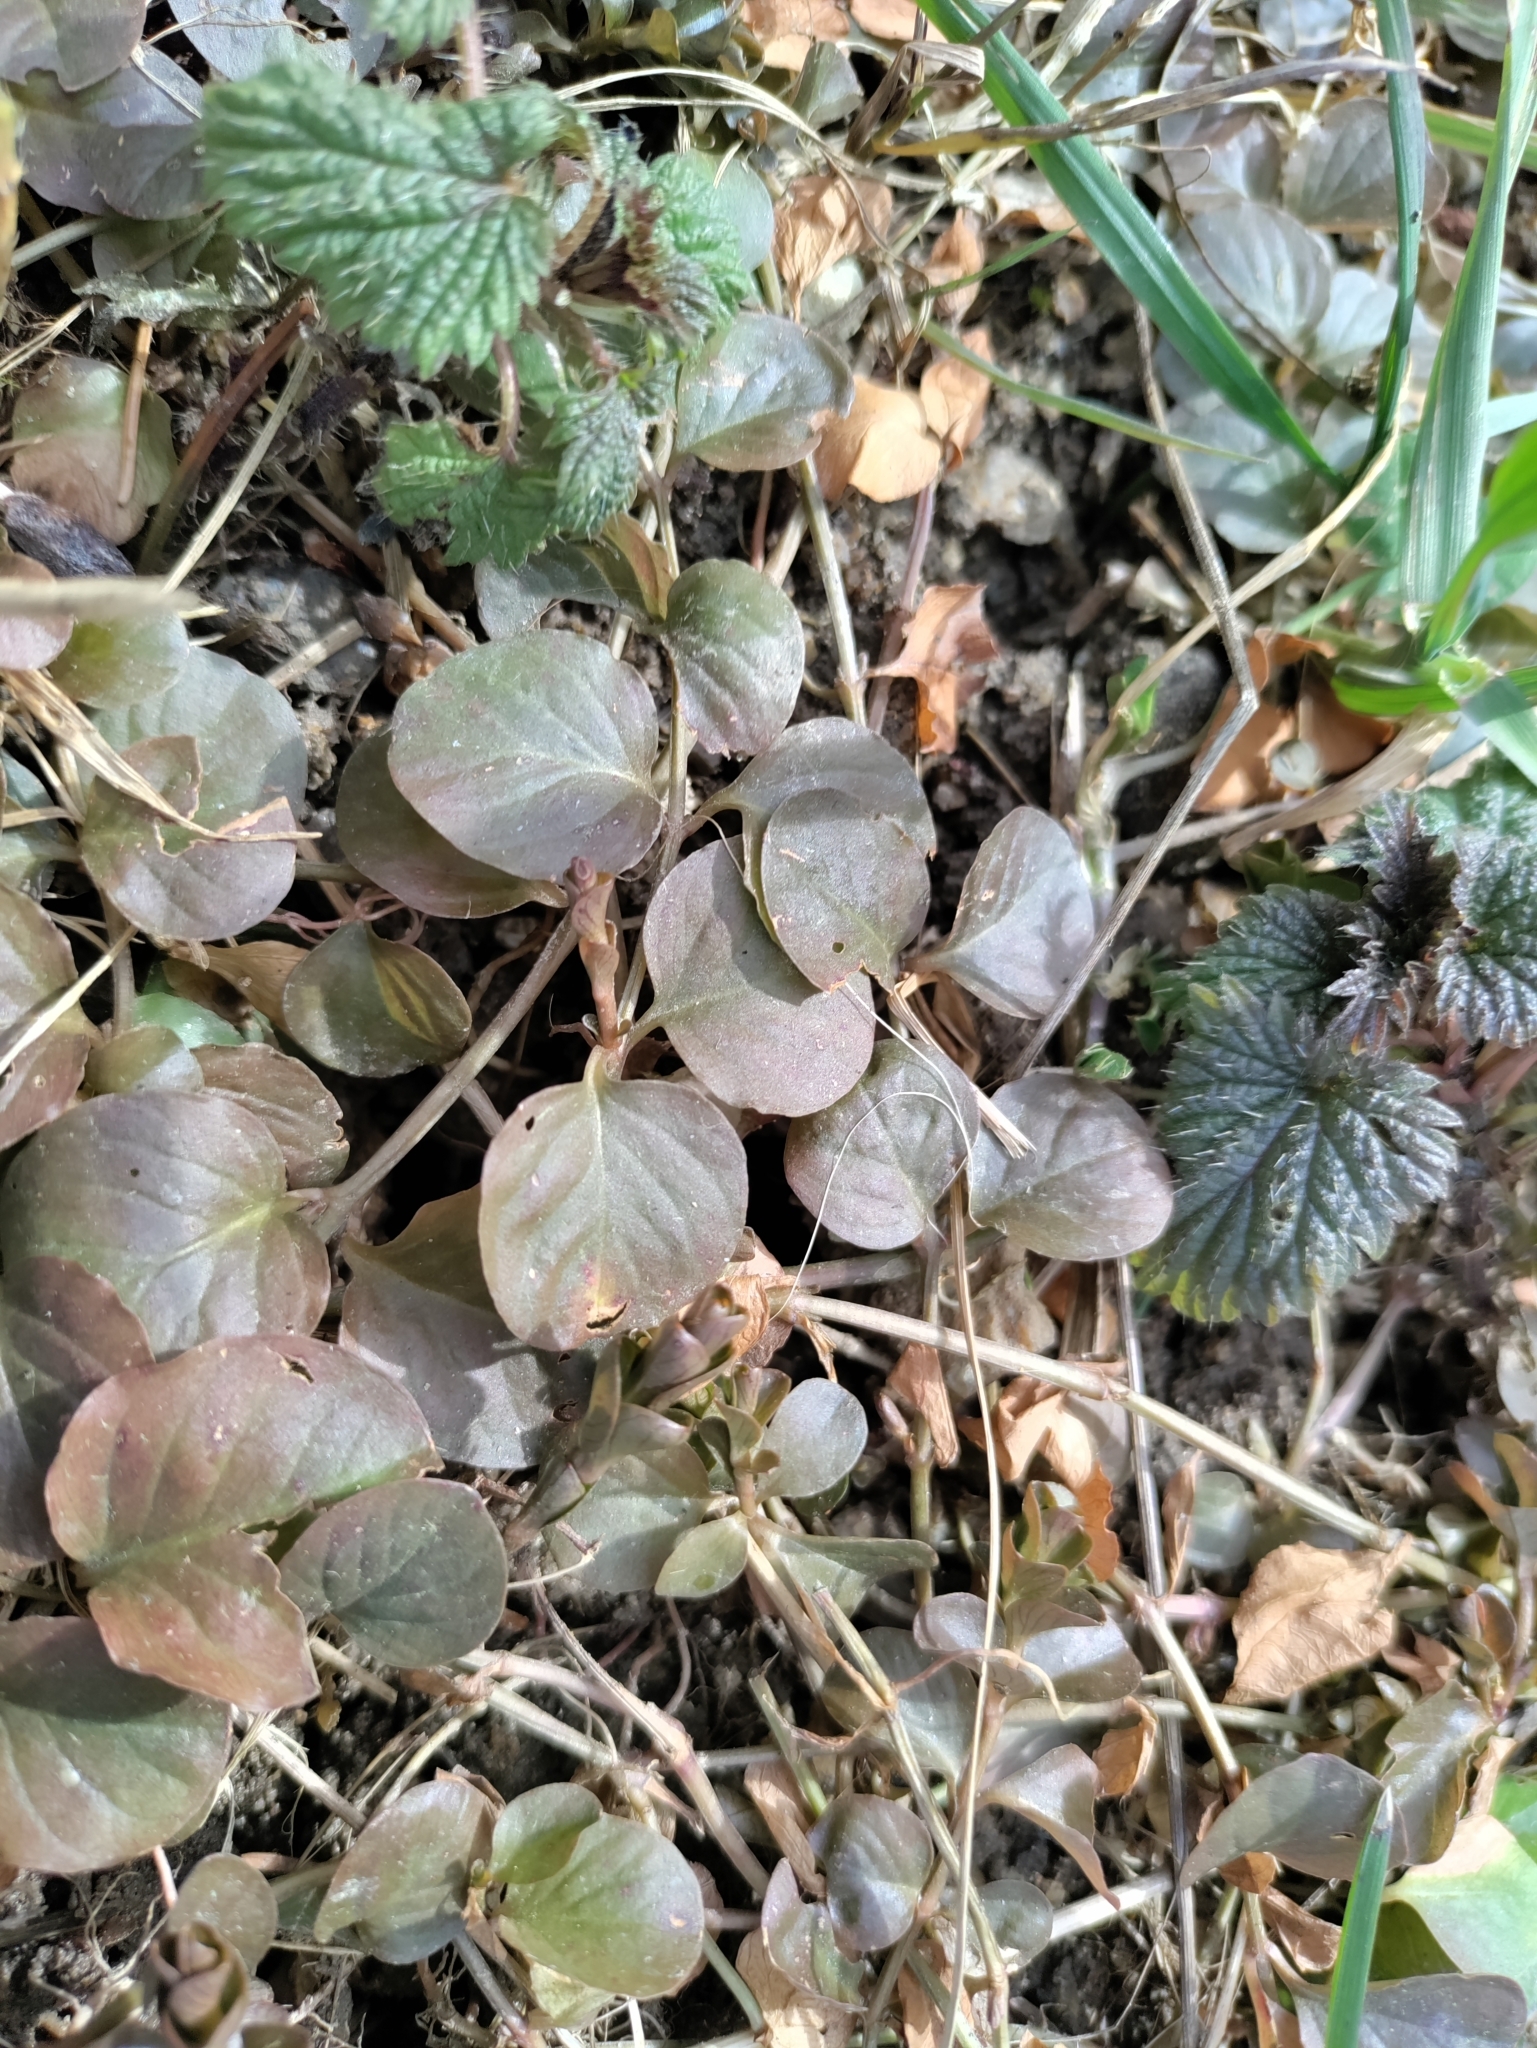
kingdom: Plantae
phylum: Tracheophyta
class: Magnoliopsida
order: Ericales
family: Primulaceae
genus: Lysimachia
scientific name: Lysimachia nummularia
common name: Moneywort
